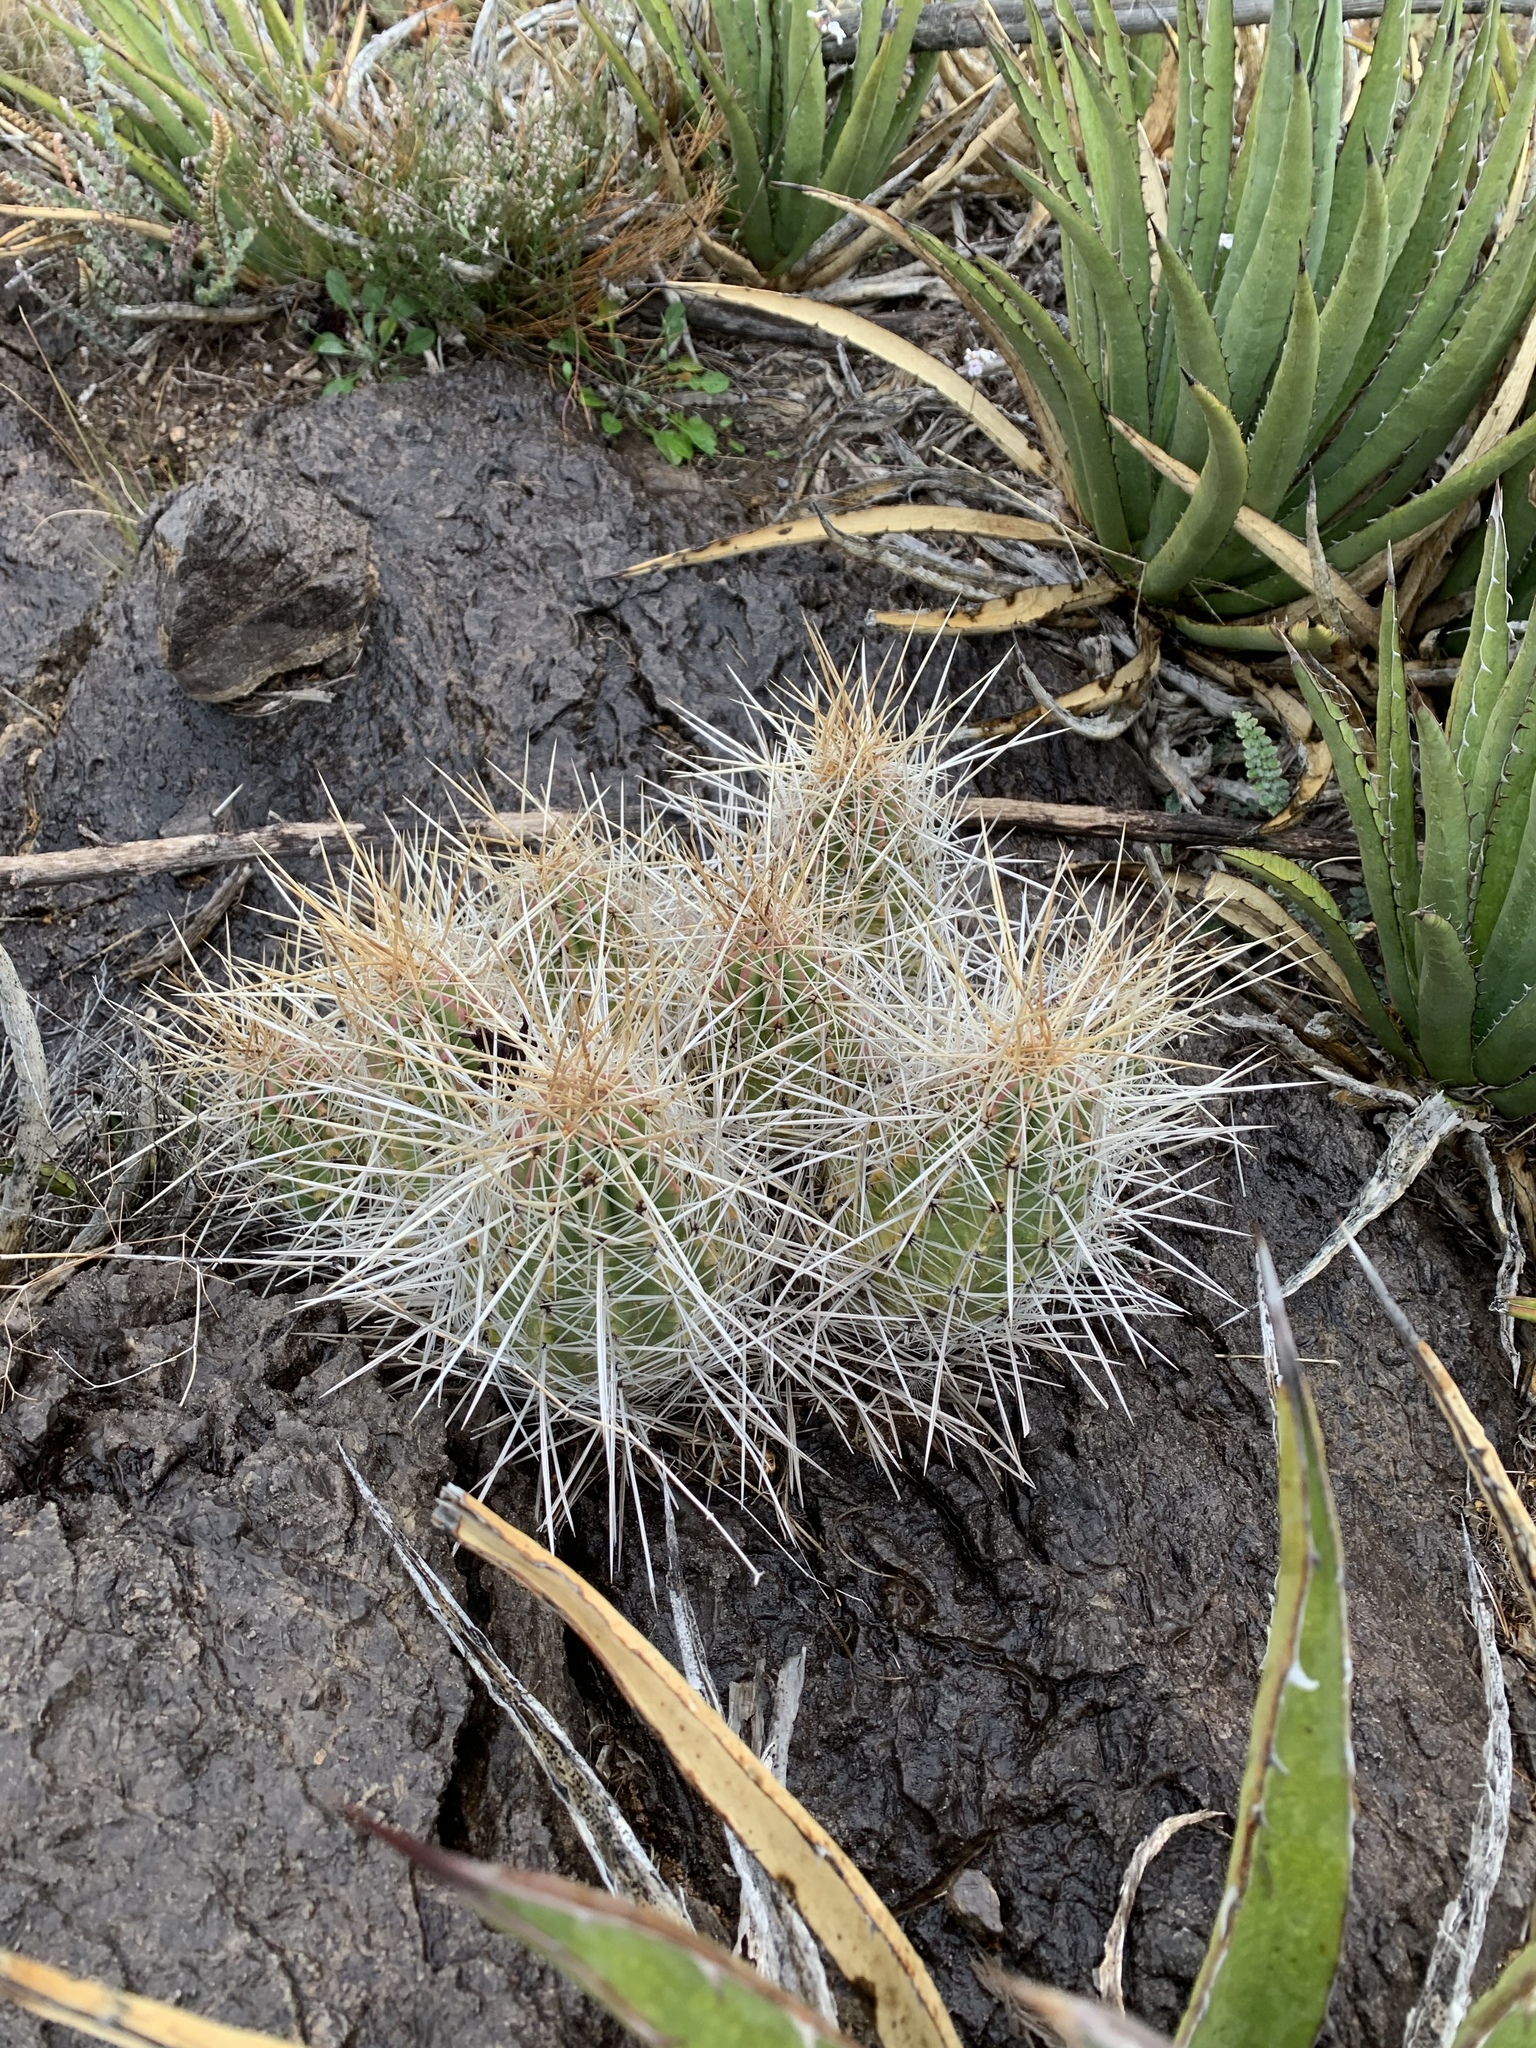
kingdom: Plantae
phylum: Tracheophyta
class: Magnoliopsida
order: Caryophyllales
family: Cactaceae
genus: Echinocereus
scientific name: Echinocereus stramineus
